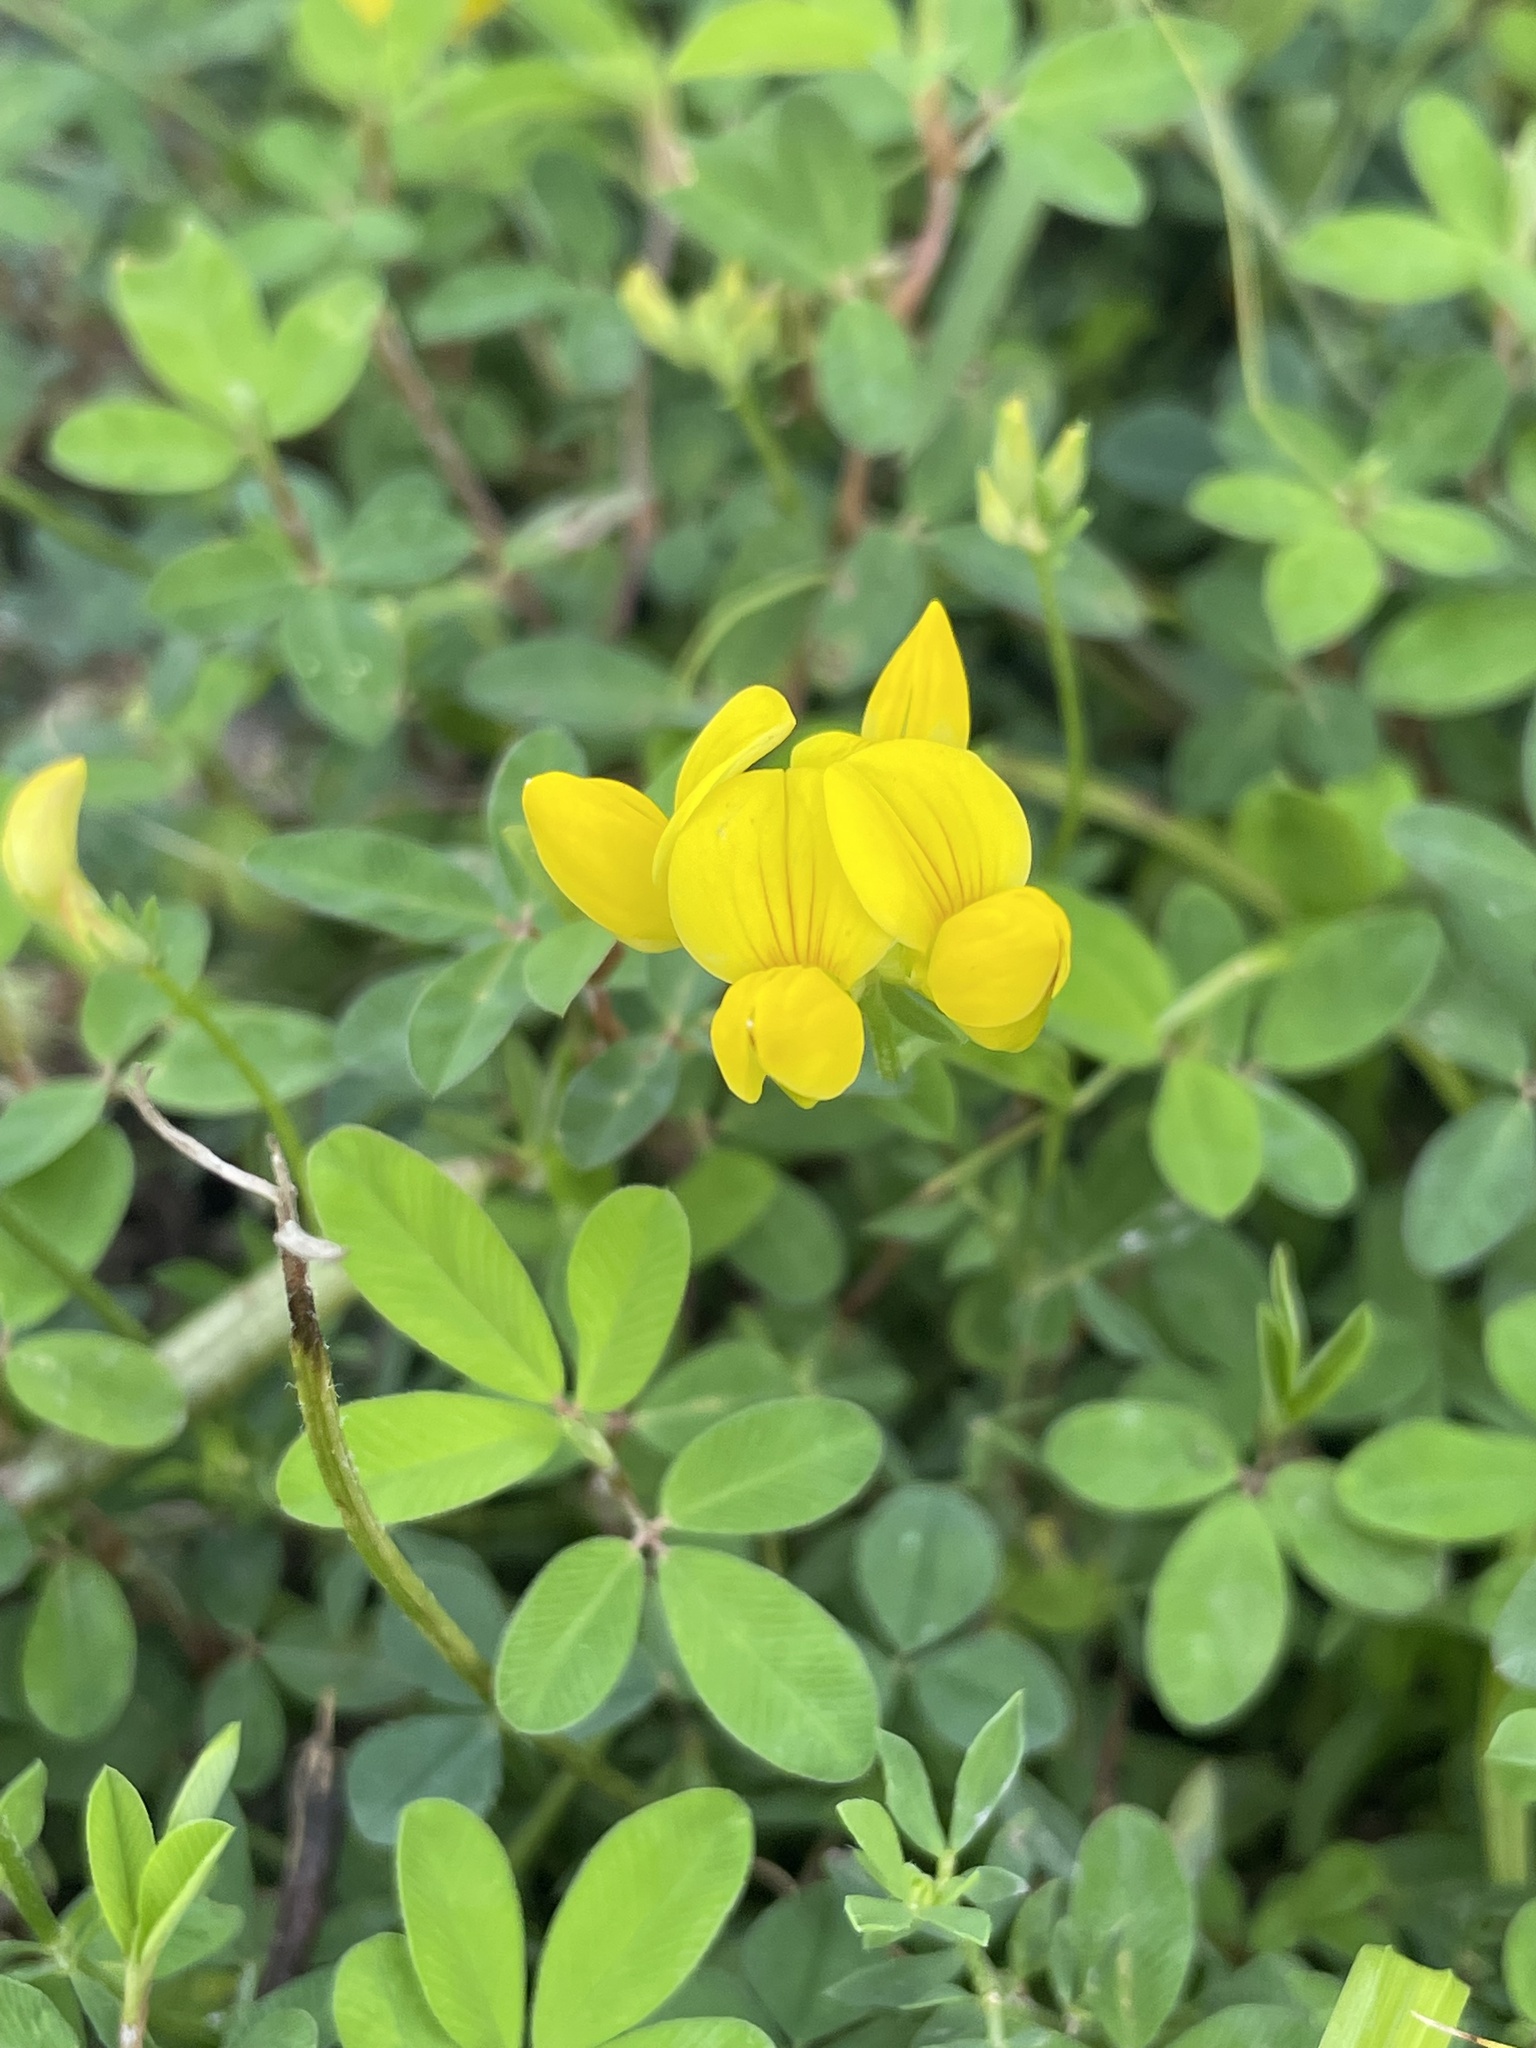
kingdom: Plantae
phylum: Tracheophyta
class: Magnoliopsida
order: Fabales
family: Fabaceae
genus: Lotus
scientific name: Lotus corniculatus
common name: Common bird's-foot-trefoil
